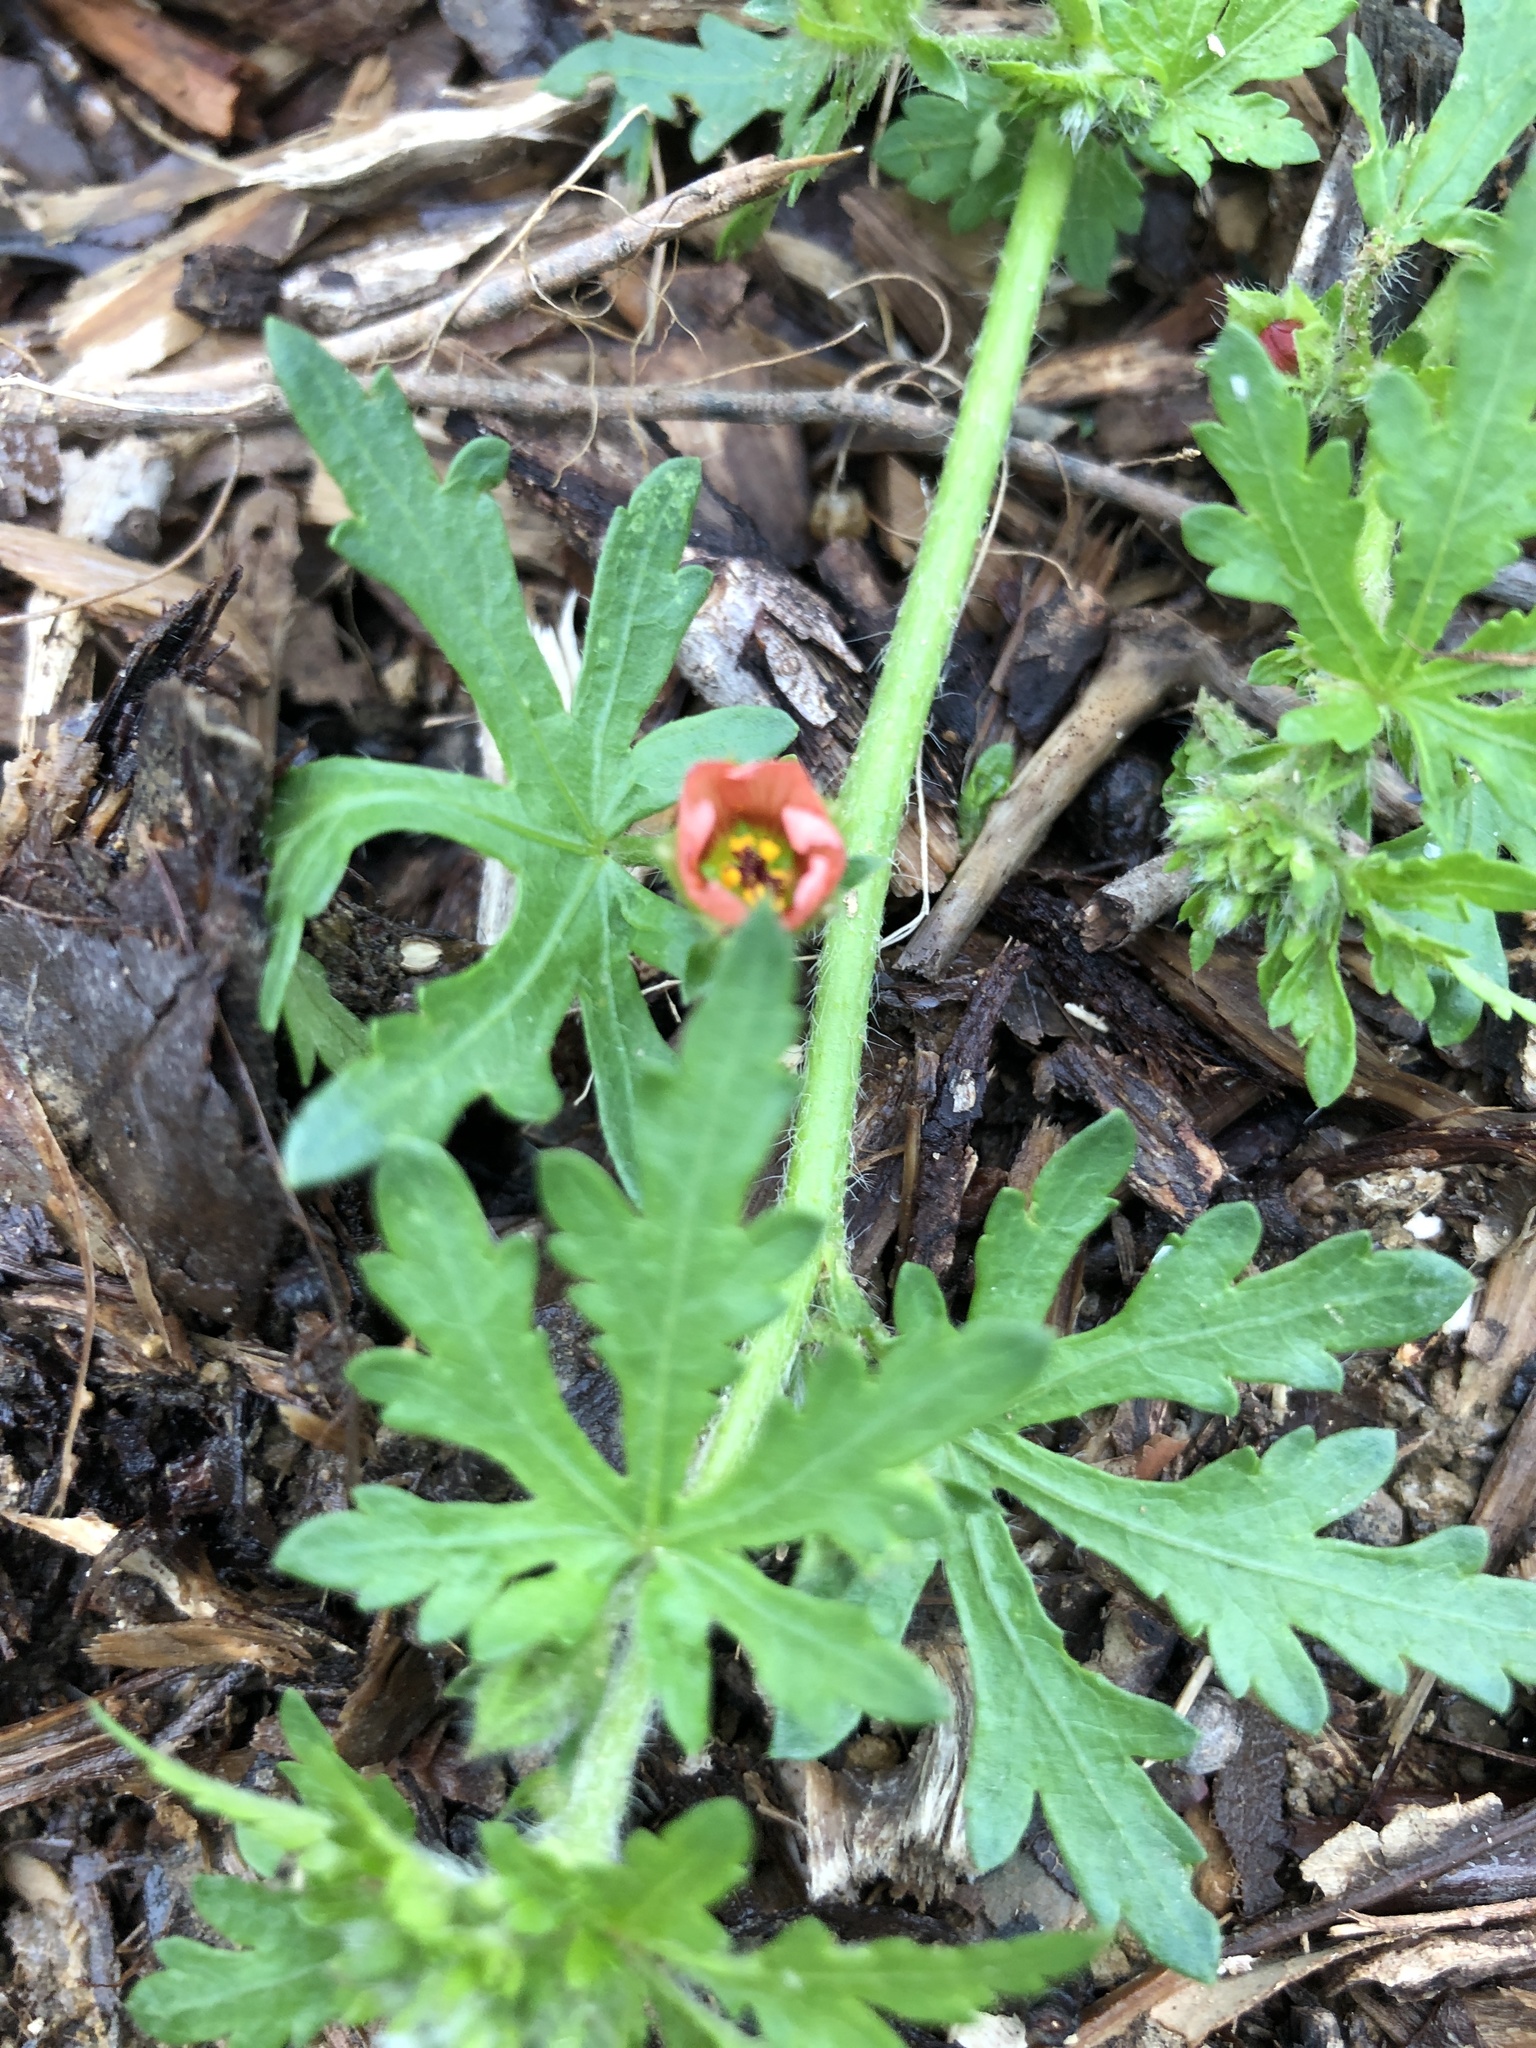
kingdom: Plantae
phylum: Tracheophyta
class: Magnoliopsida
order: Malvales
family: Malvaceae
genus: Modiola
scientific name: Modiola caroliniana
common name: Carolina bristlemallow
